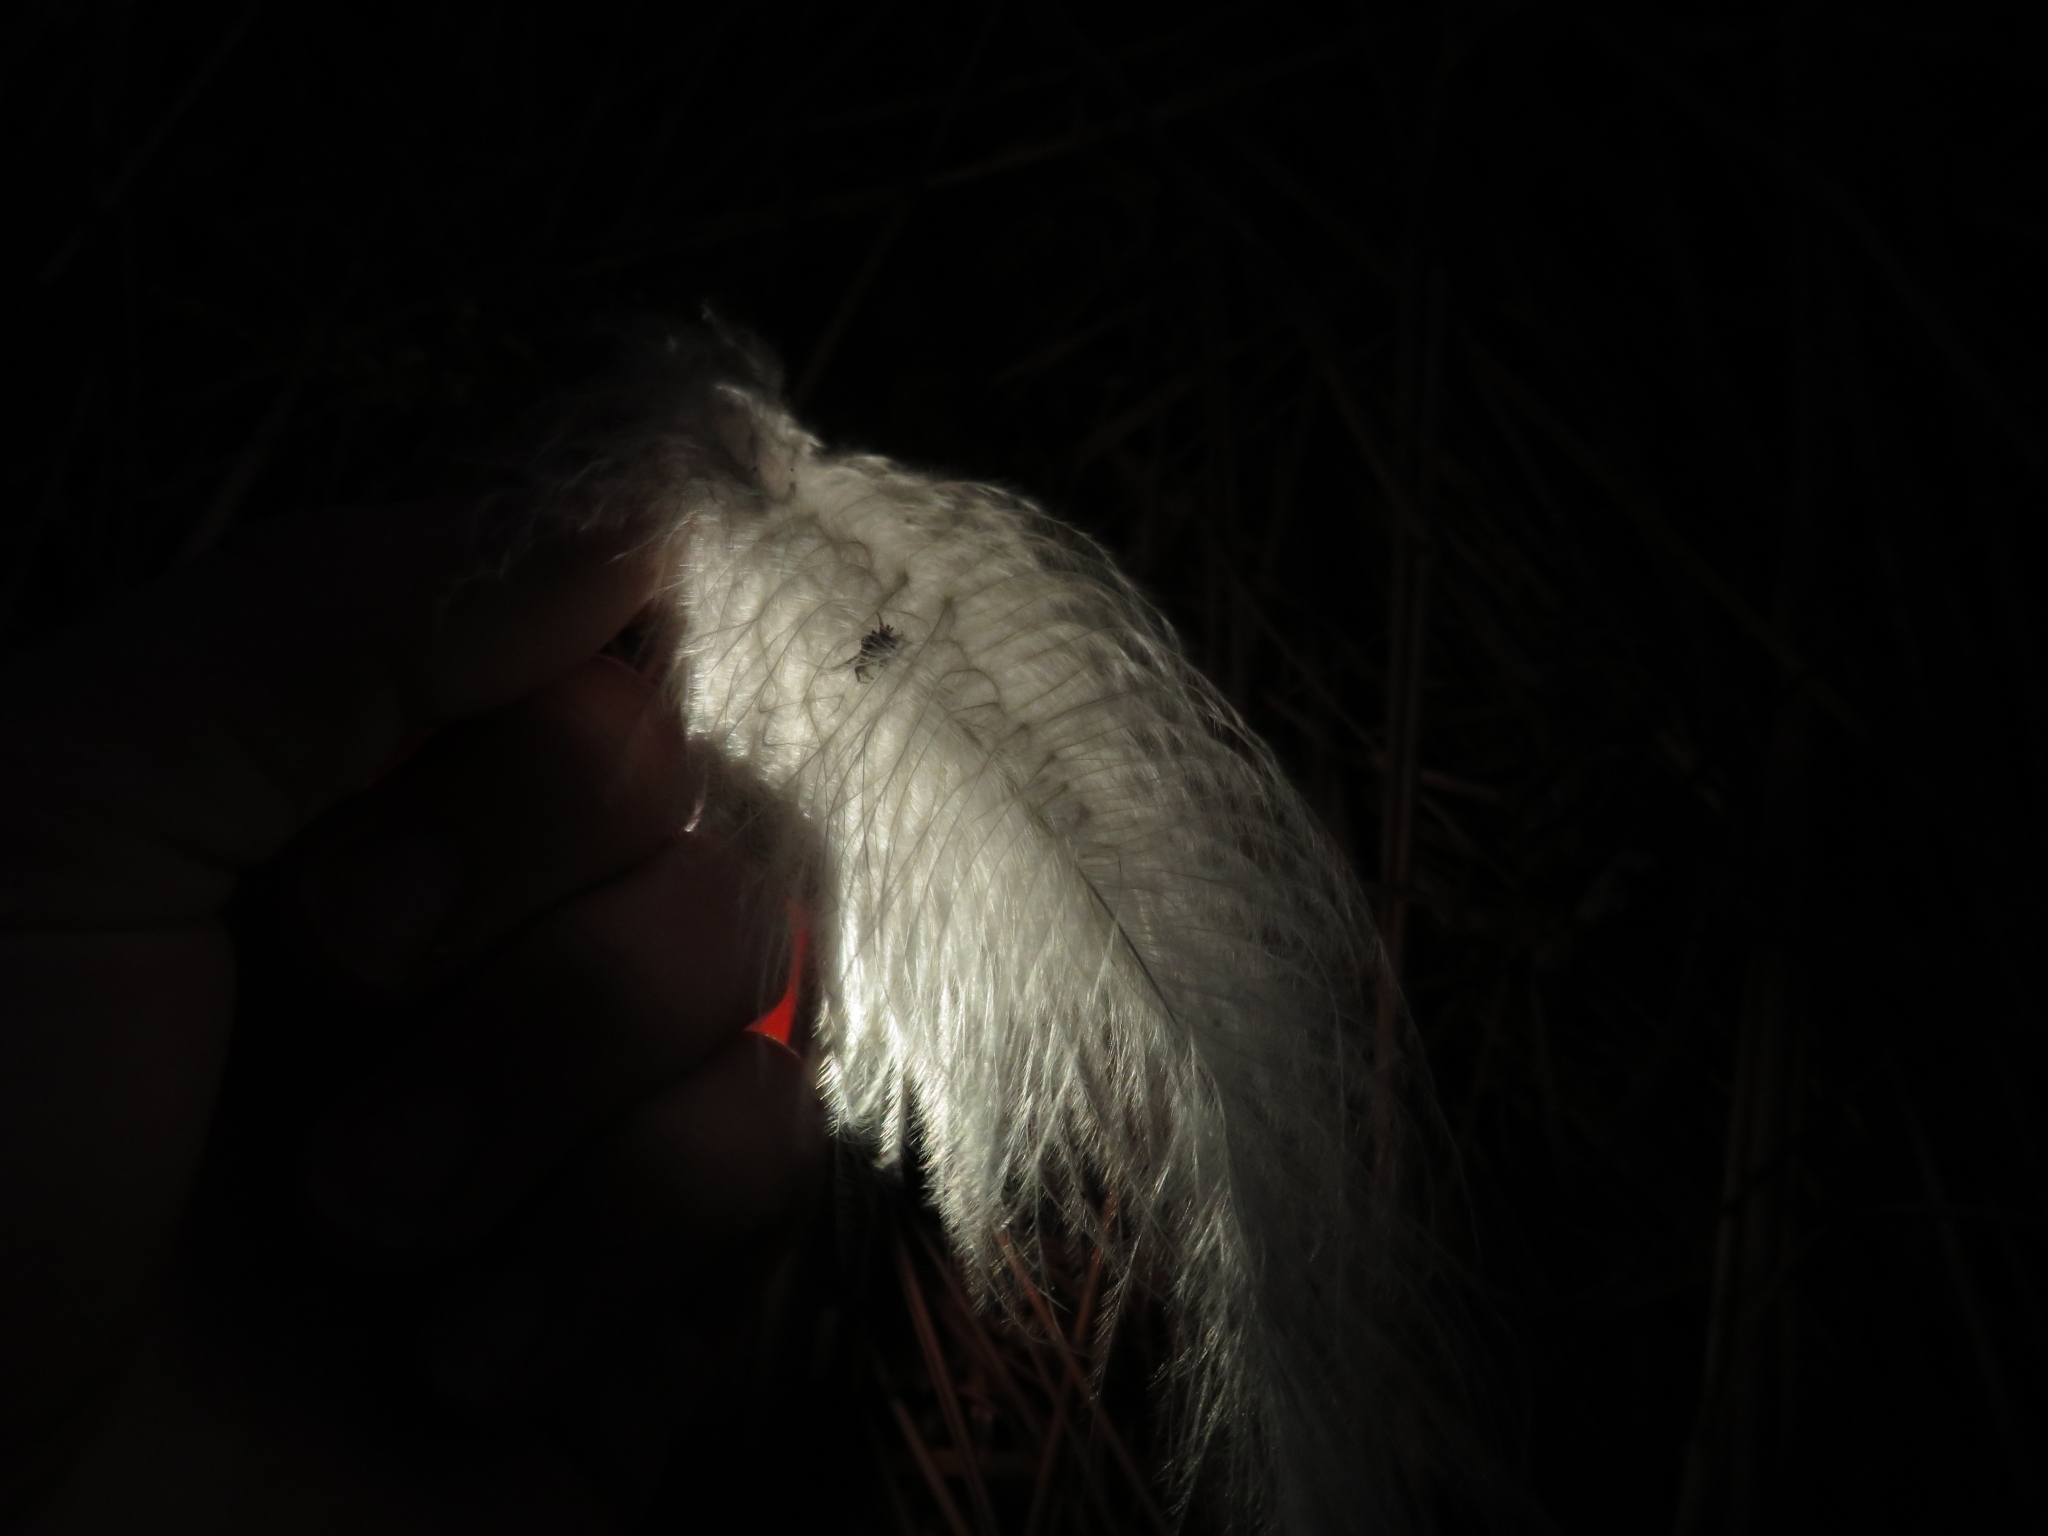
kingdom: Animalia
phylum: Chordata
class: Aves
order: Pelecaniformes
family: Ardeidae
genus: Ardea
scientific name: Ardea herodias
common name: Great blue heron
